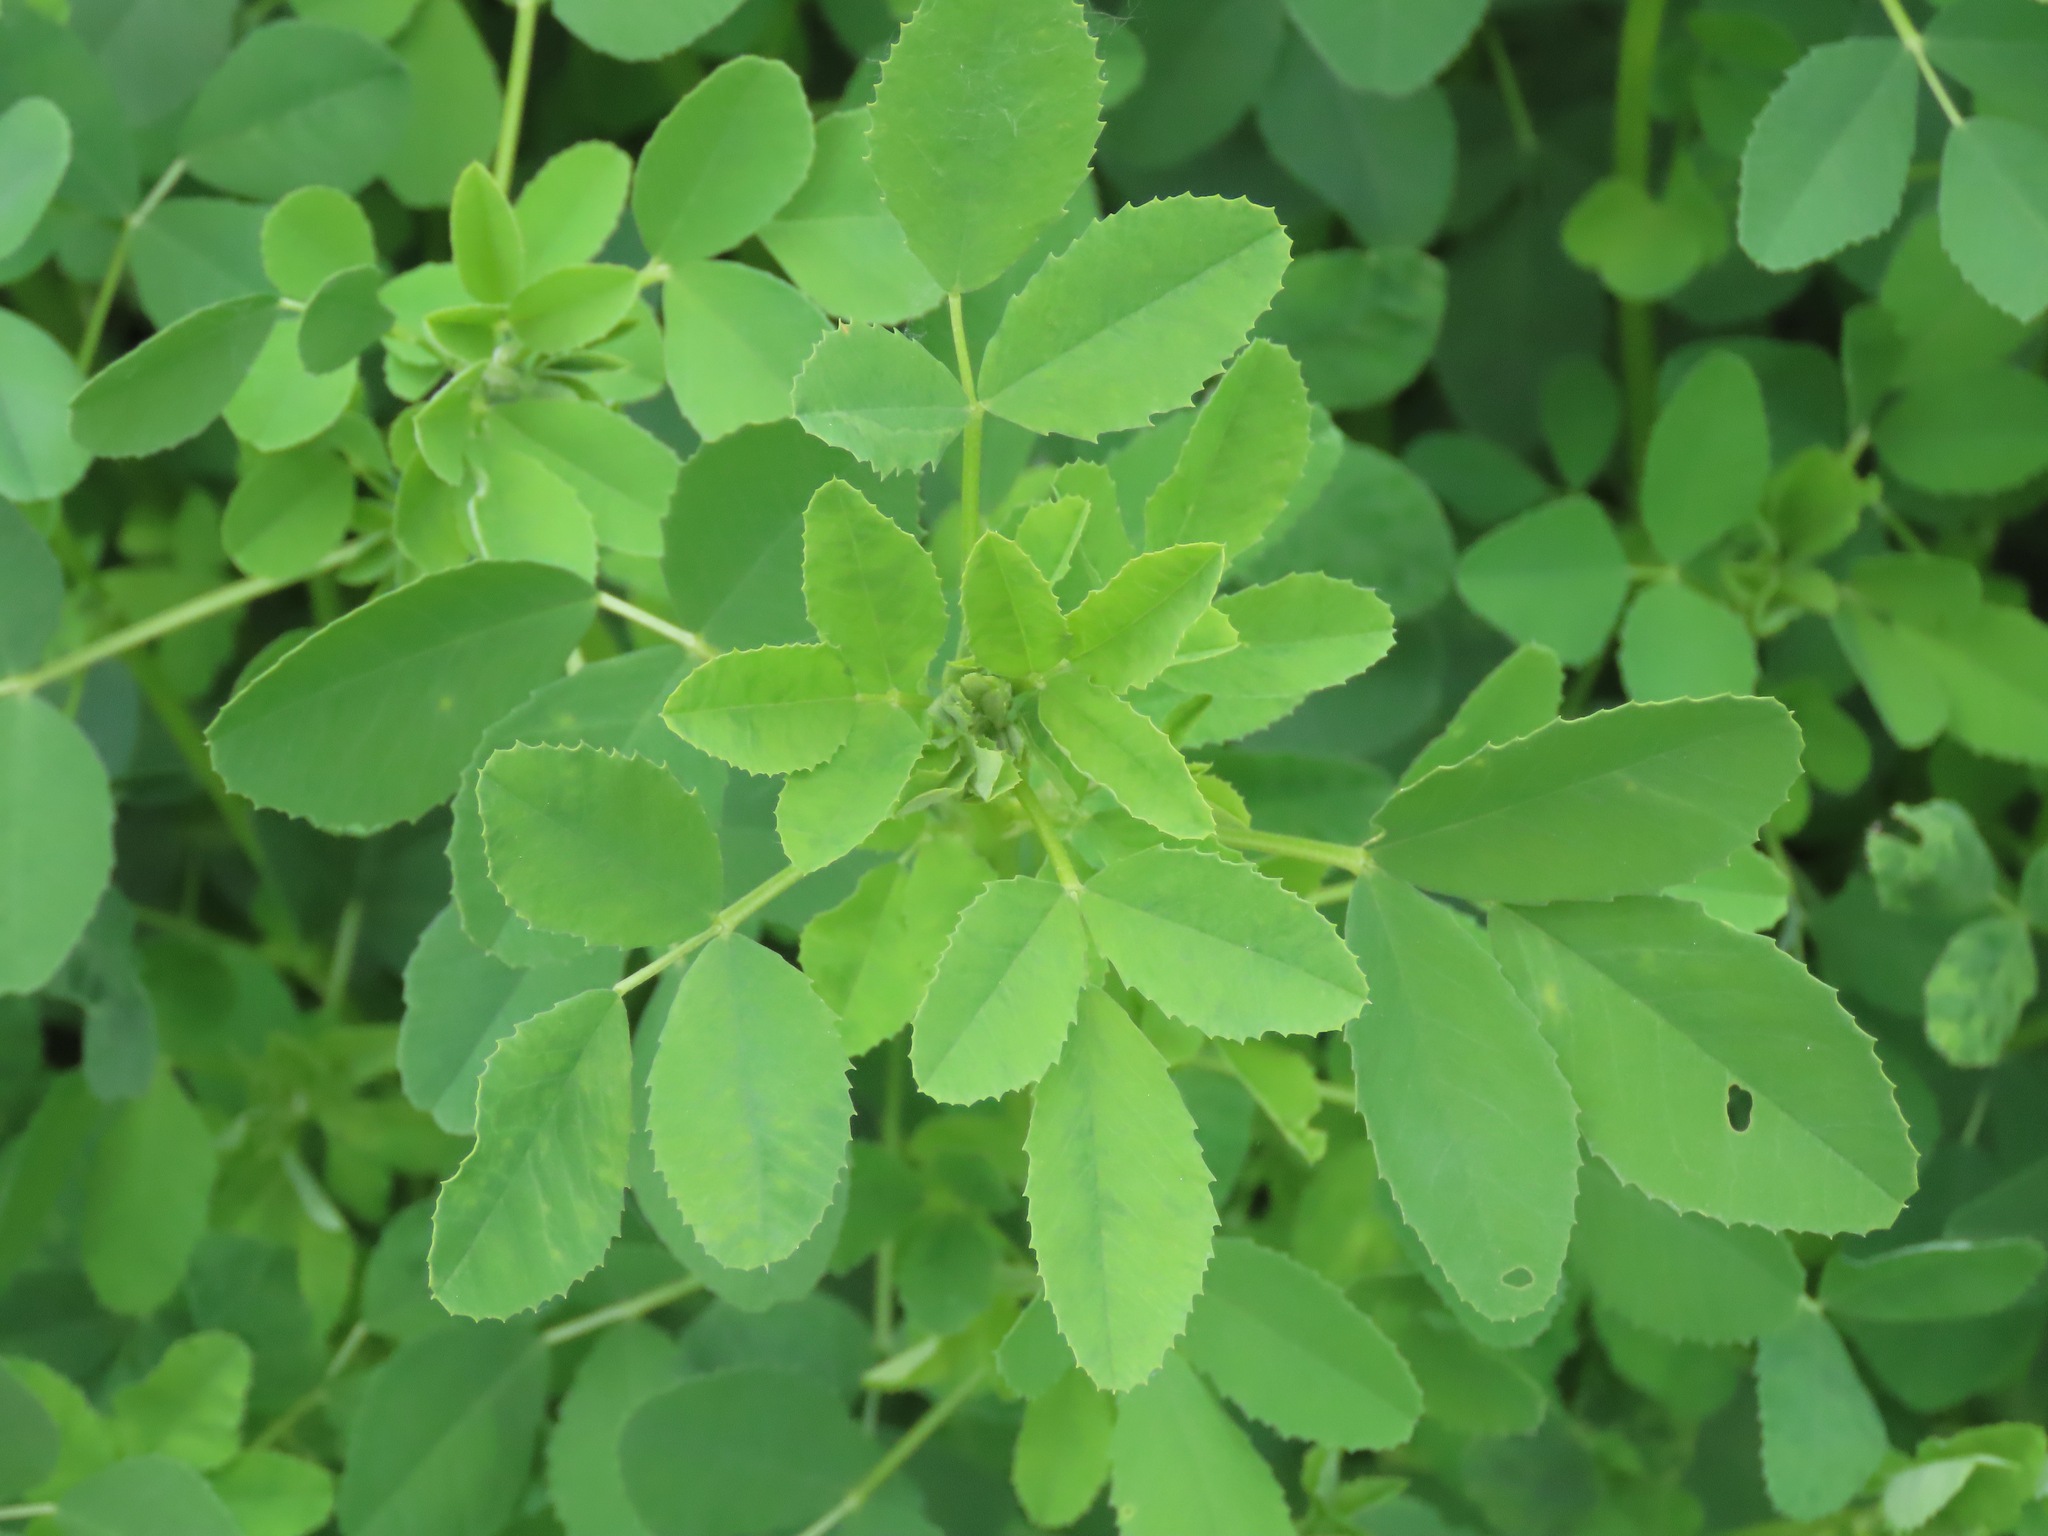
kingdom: Plantae
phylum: Tracheophyta
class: Magnoliopsida
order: Fabales
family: Fabaceae
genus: Melilotus
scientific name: Melilotus
